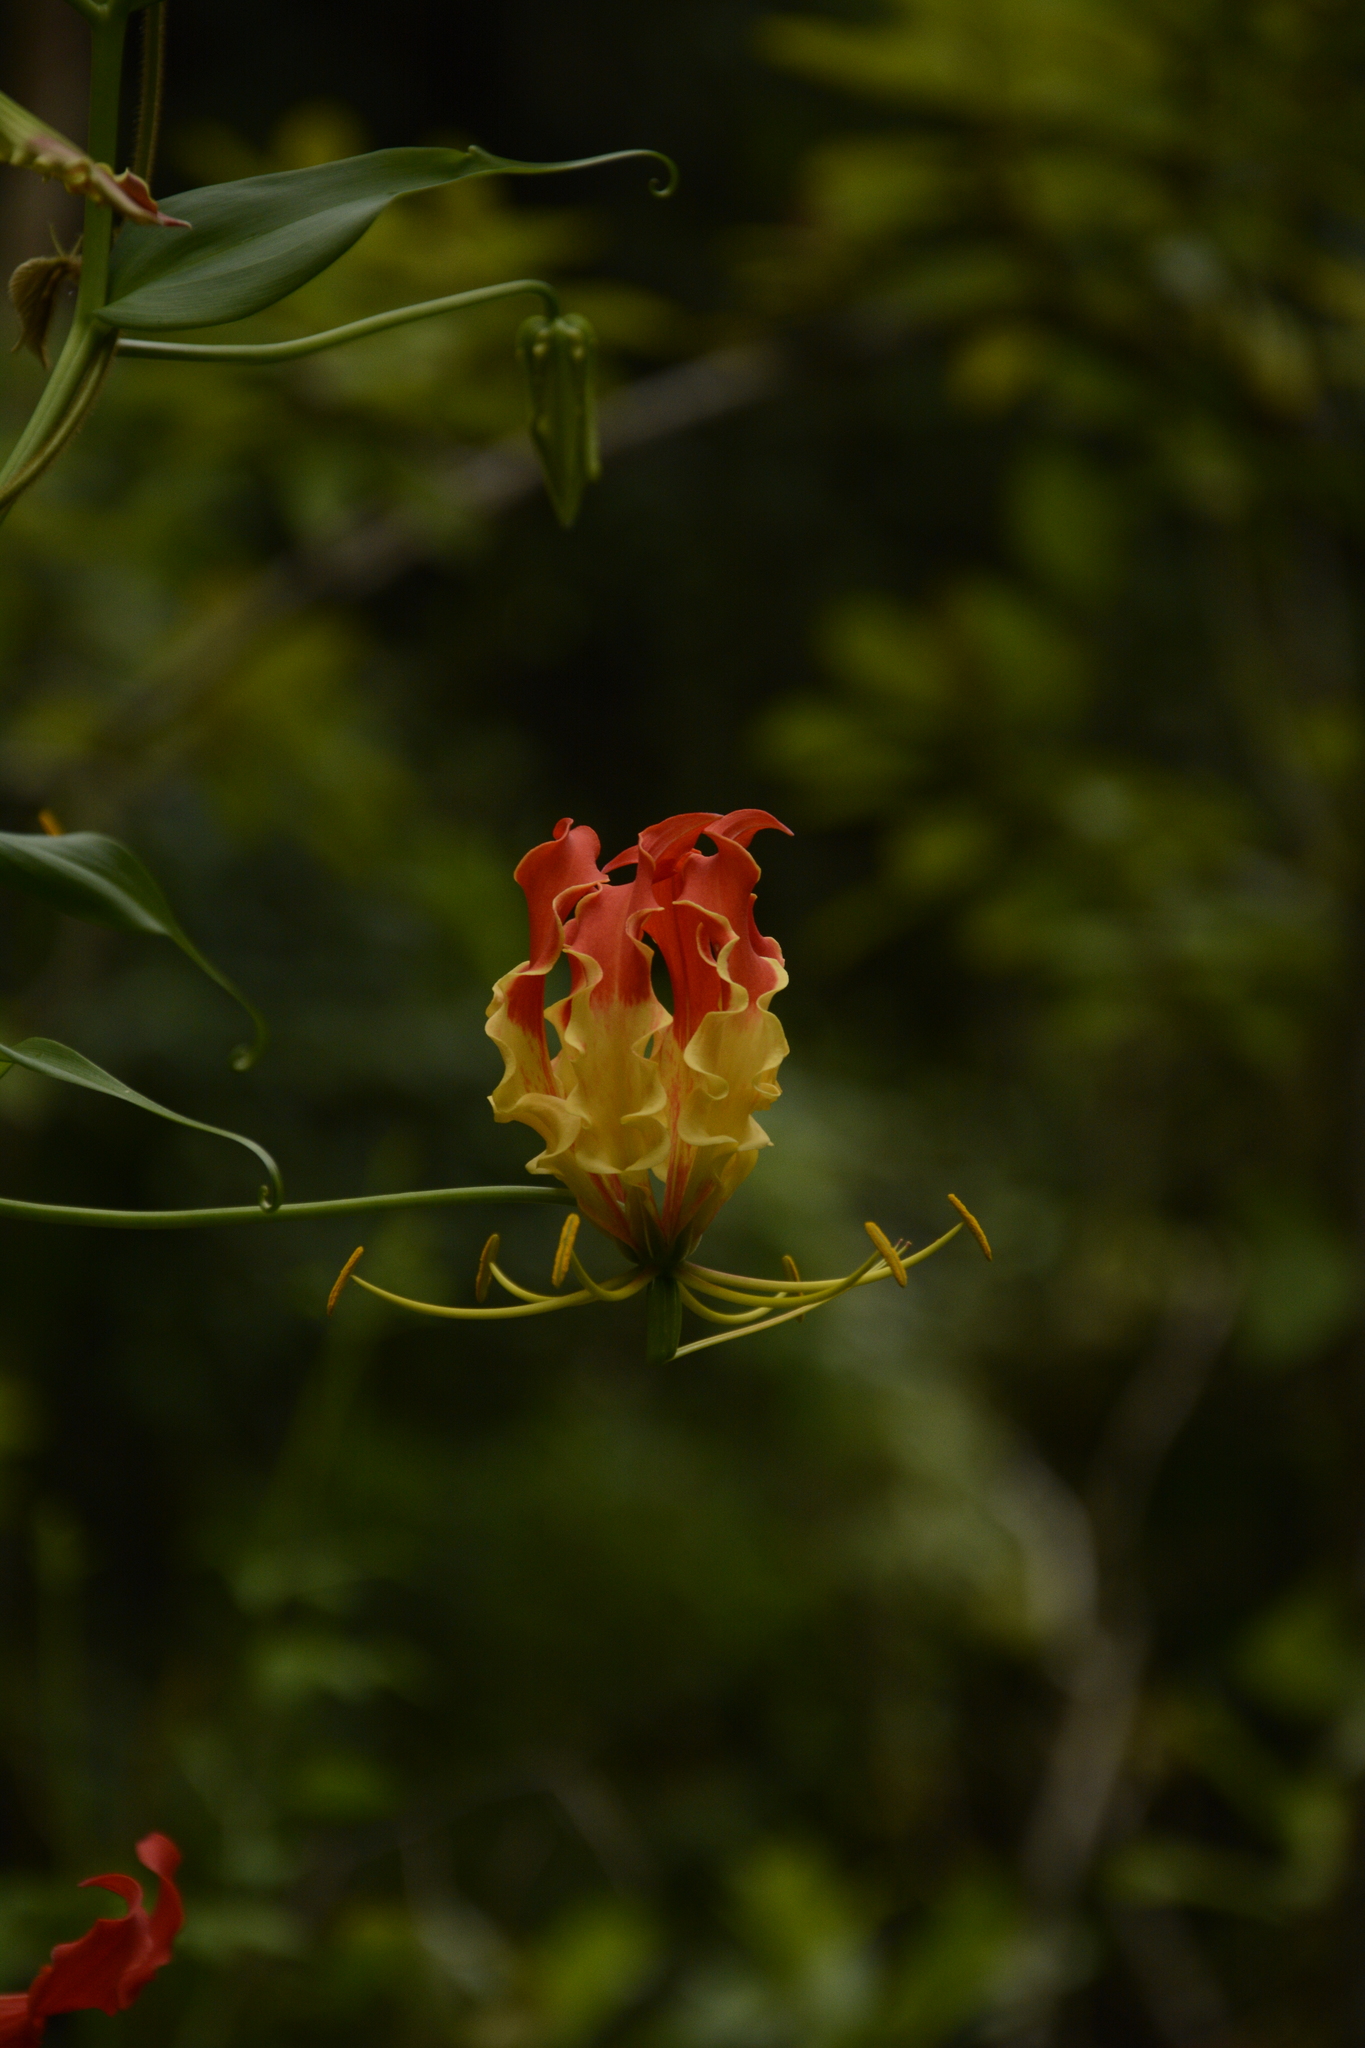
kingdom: Plantae
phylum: Tracheophyta
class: Liliopsida
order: Liliales
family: Colchicaceae
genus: Gloriosa
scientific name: Gloriosa superba
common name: Flame lily
